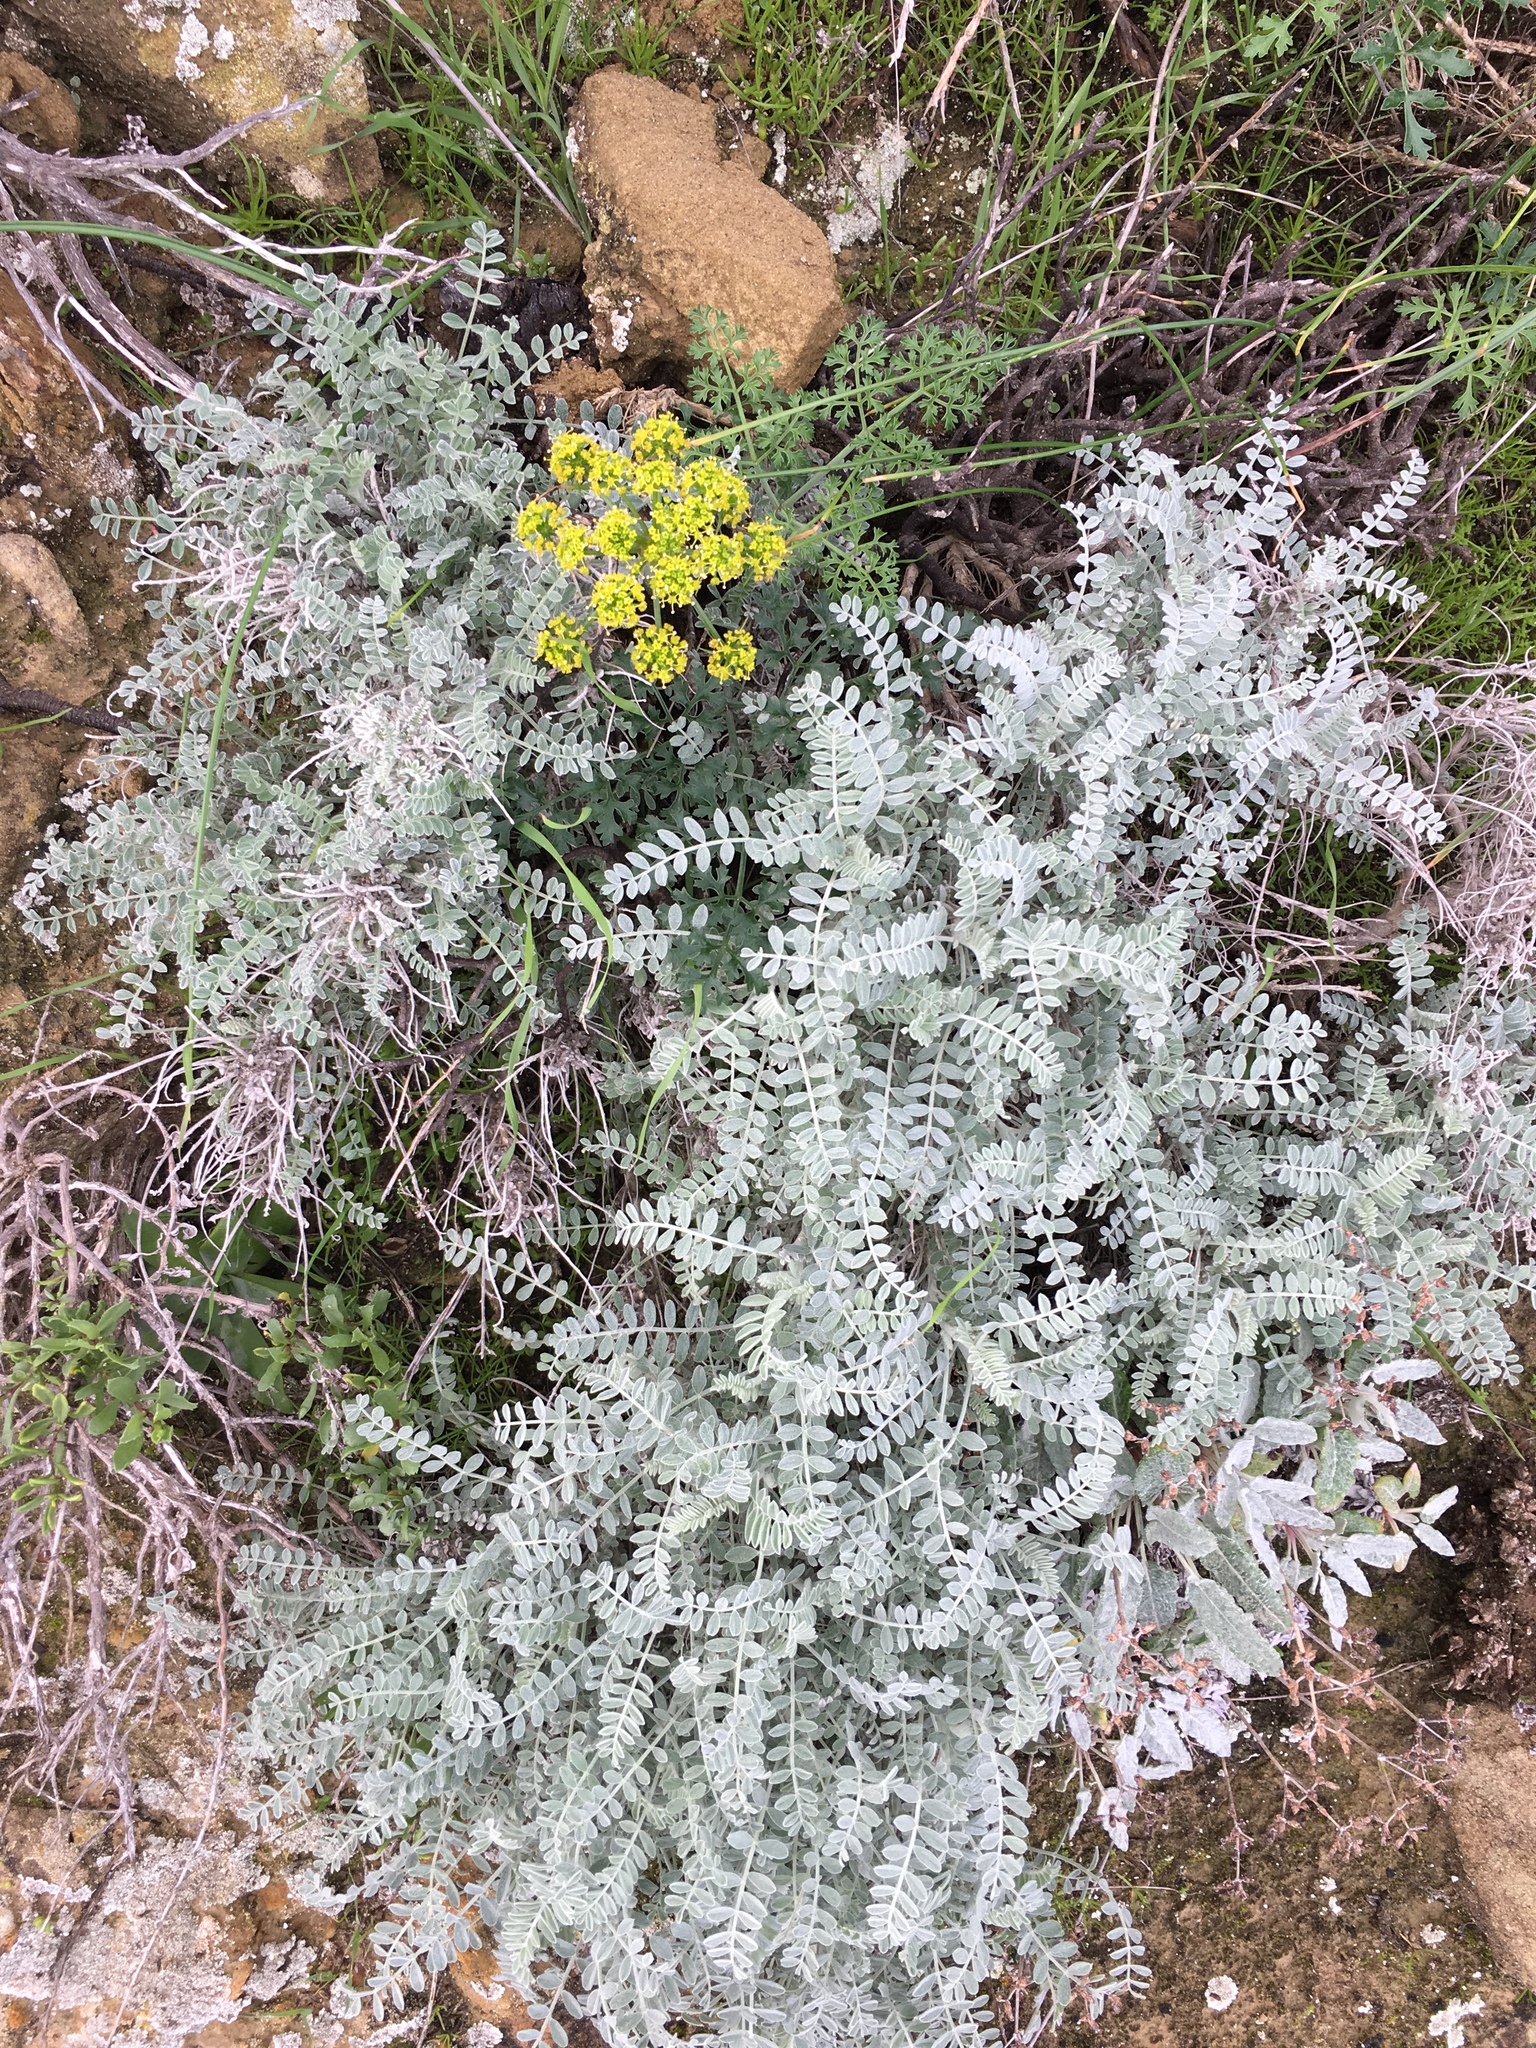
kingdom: Plantae
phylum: Tracheophyta
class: Magnoliopsida
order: Fabales
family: Fabaceae
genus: Astragalus
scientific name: Astragalus traskiae
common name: Trask's milk-vetch
